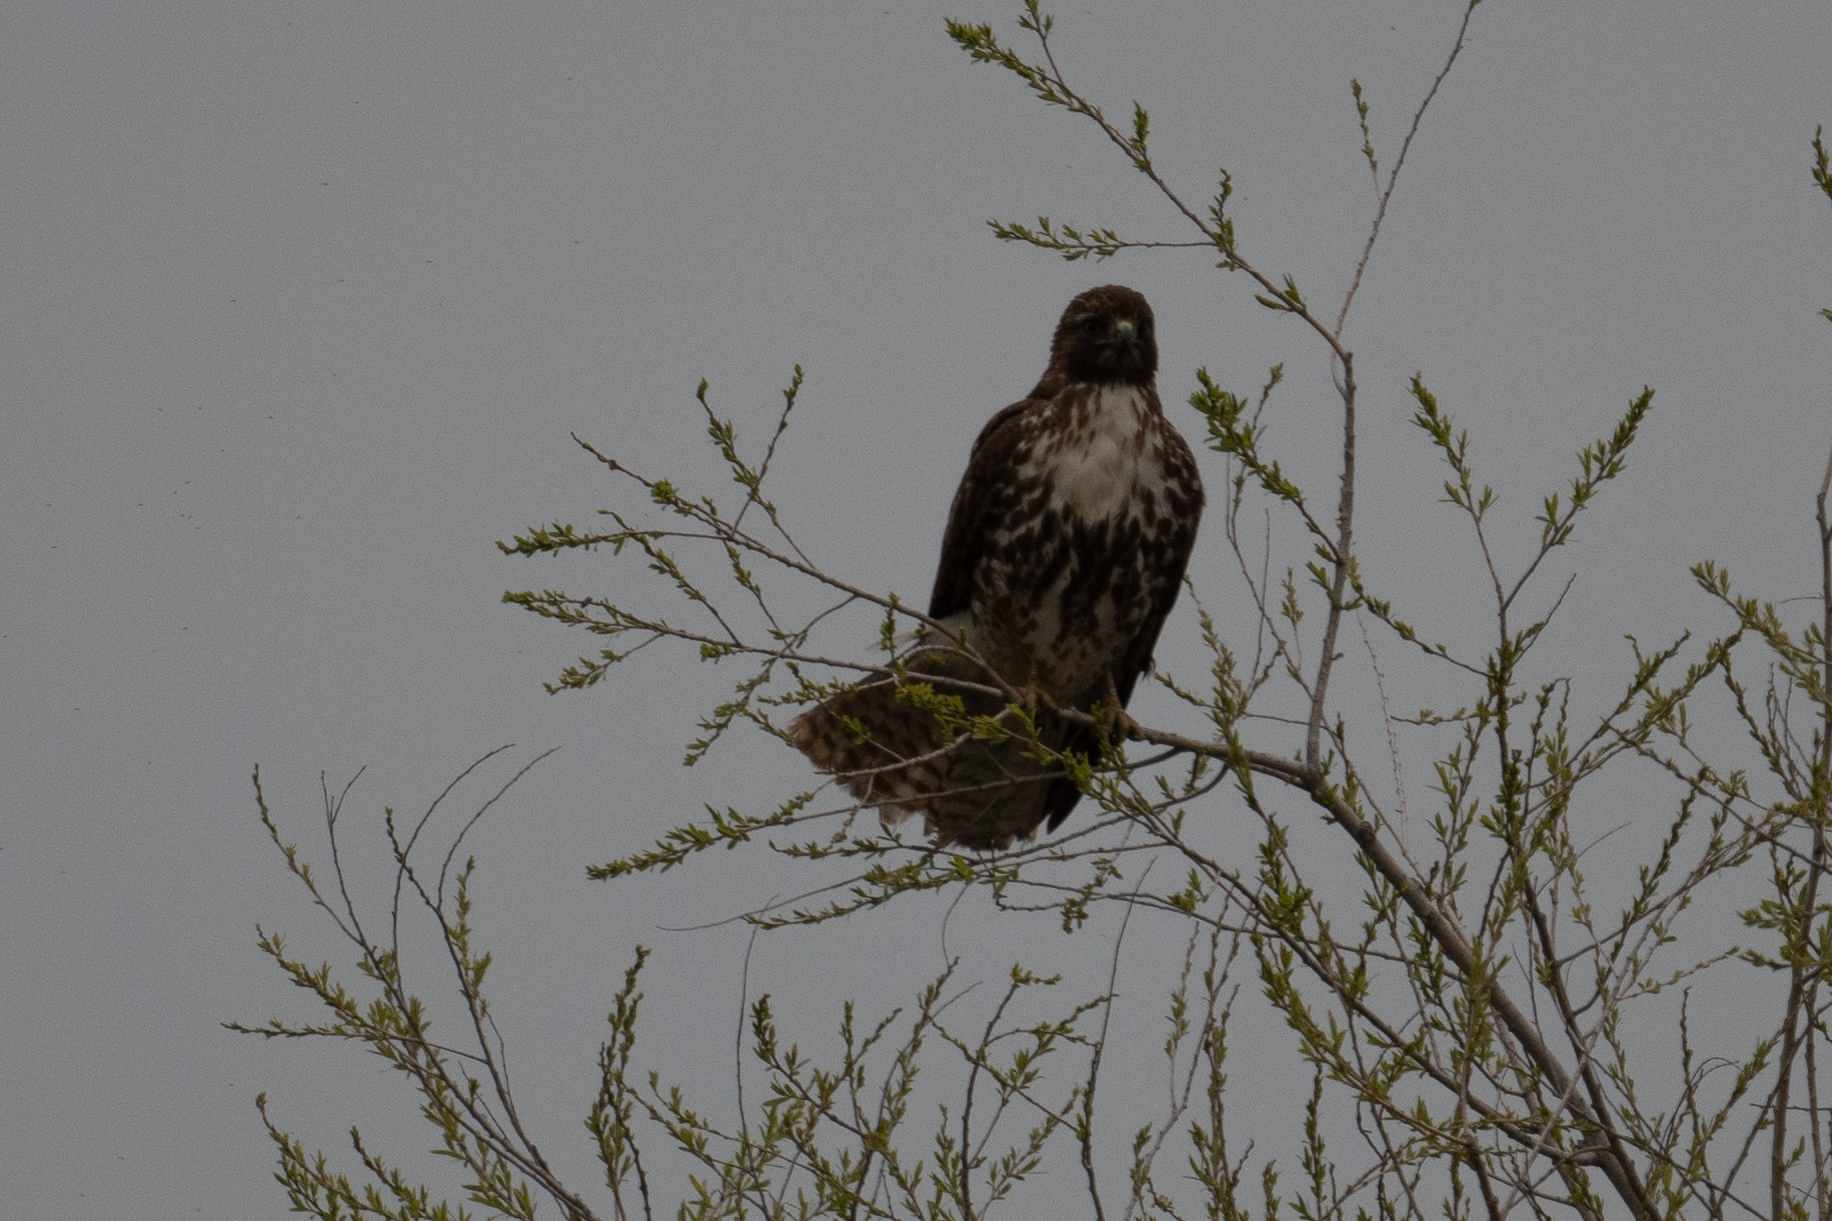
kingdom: Animalia
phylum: Chordata
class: Aves
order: Accipitriformes
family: Accipitridae
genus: Buteo
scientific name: Buteo jamaicensis
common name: Red-tailed hawk
